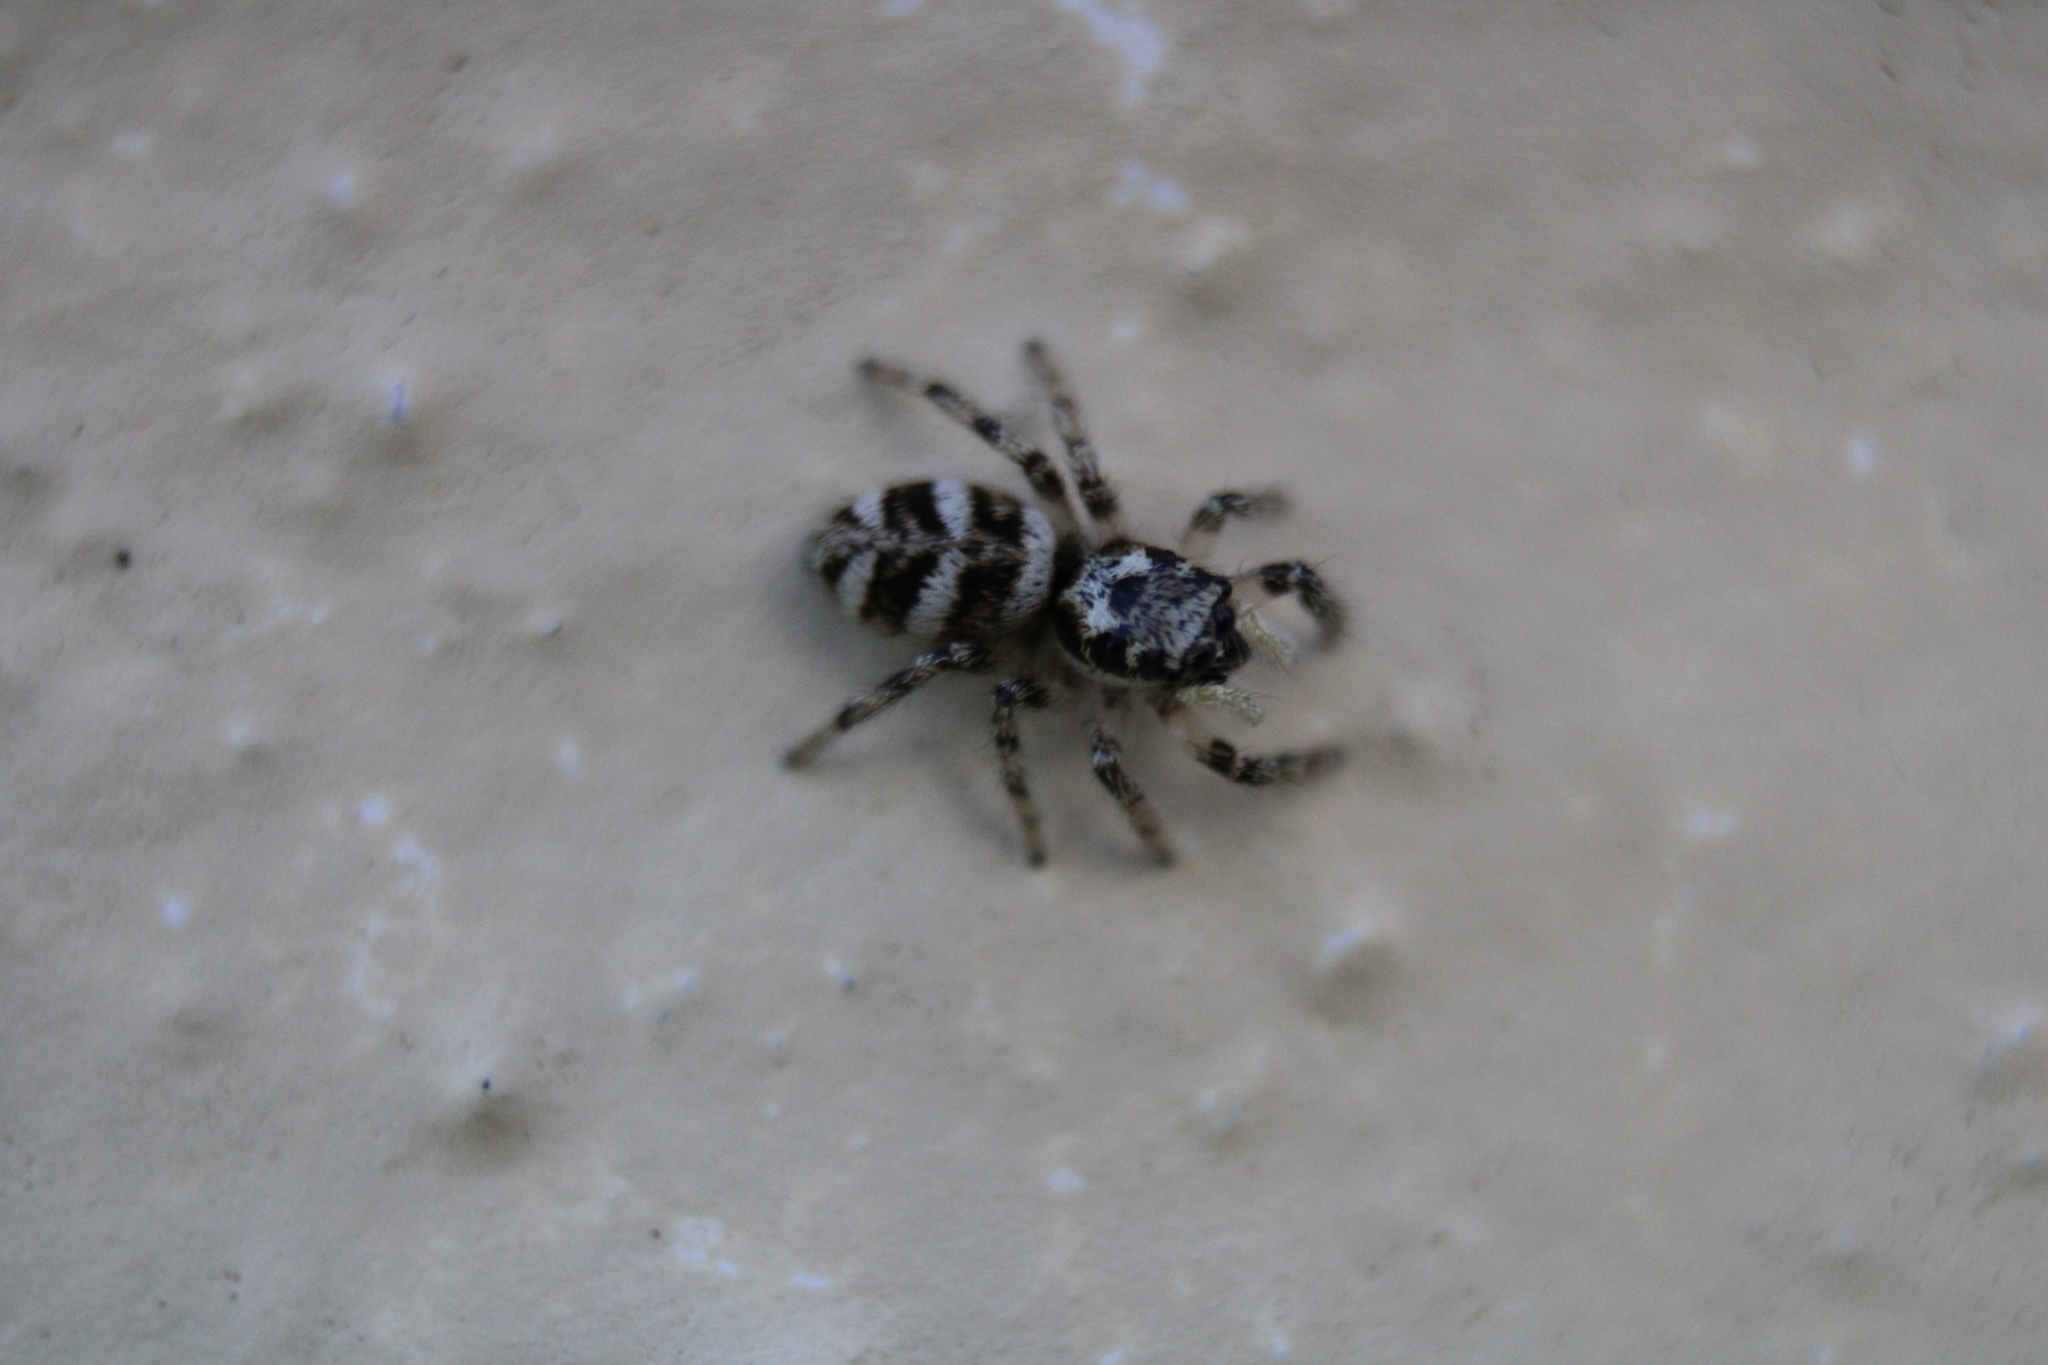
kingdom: Animalia
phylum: Arthropoda
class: Arachnida
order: Araneae
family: Salticidae
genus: Salticus
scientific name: Salticus scenicus
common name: Zebra jumper
